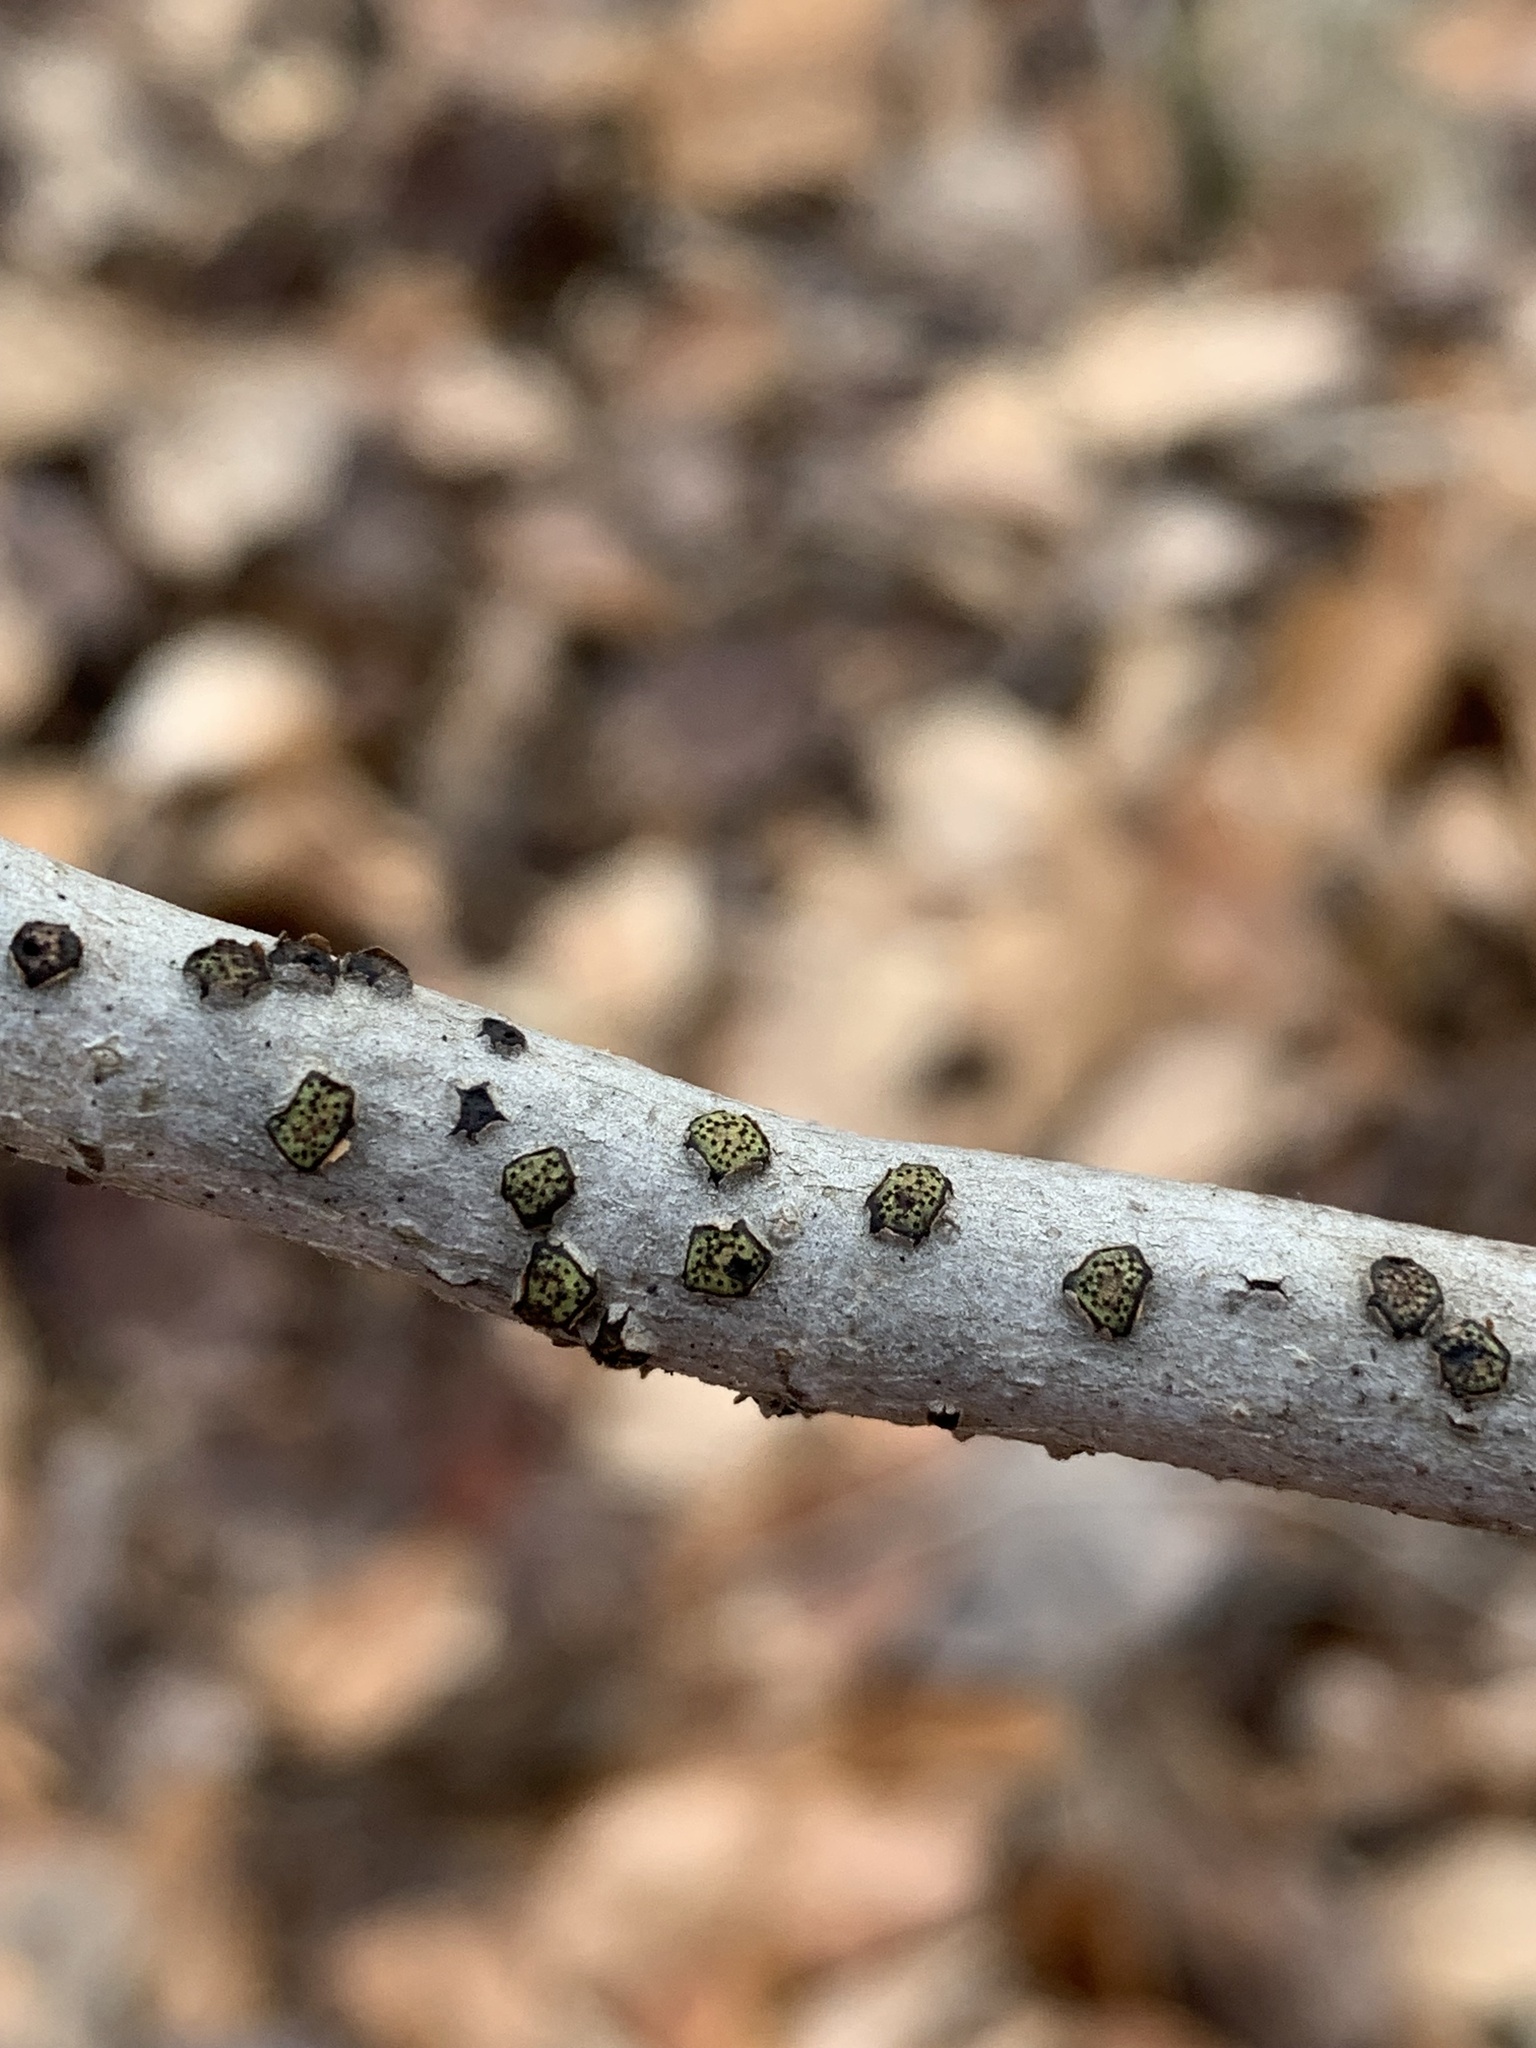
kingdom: Fungi
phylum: Ascomycota
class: Sordariomycetes
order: Xylariales
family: Diatrypaceae
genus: Diatrype
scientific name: Diatrype virescens
